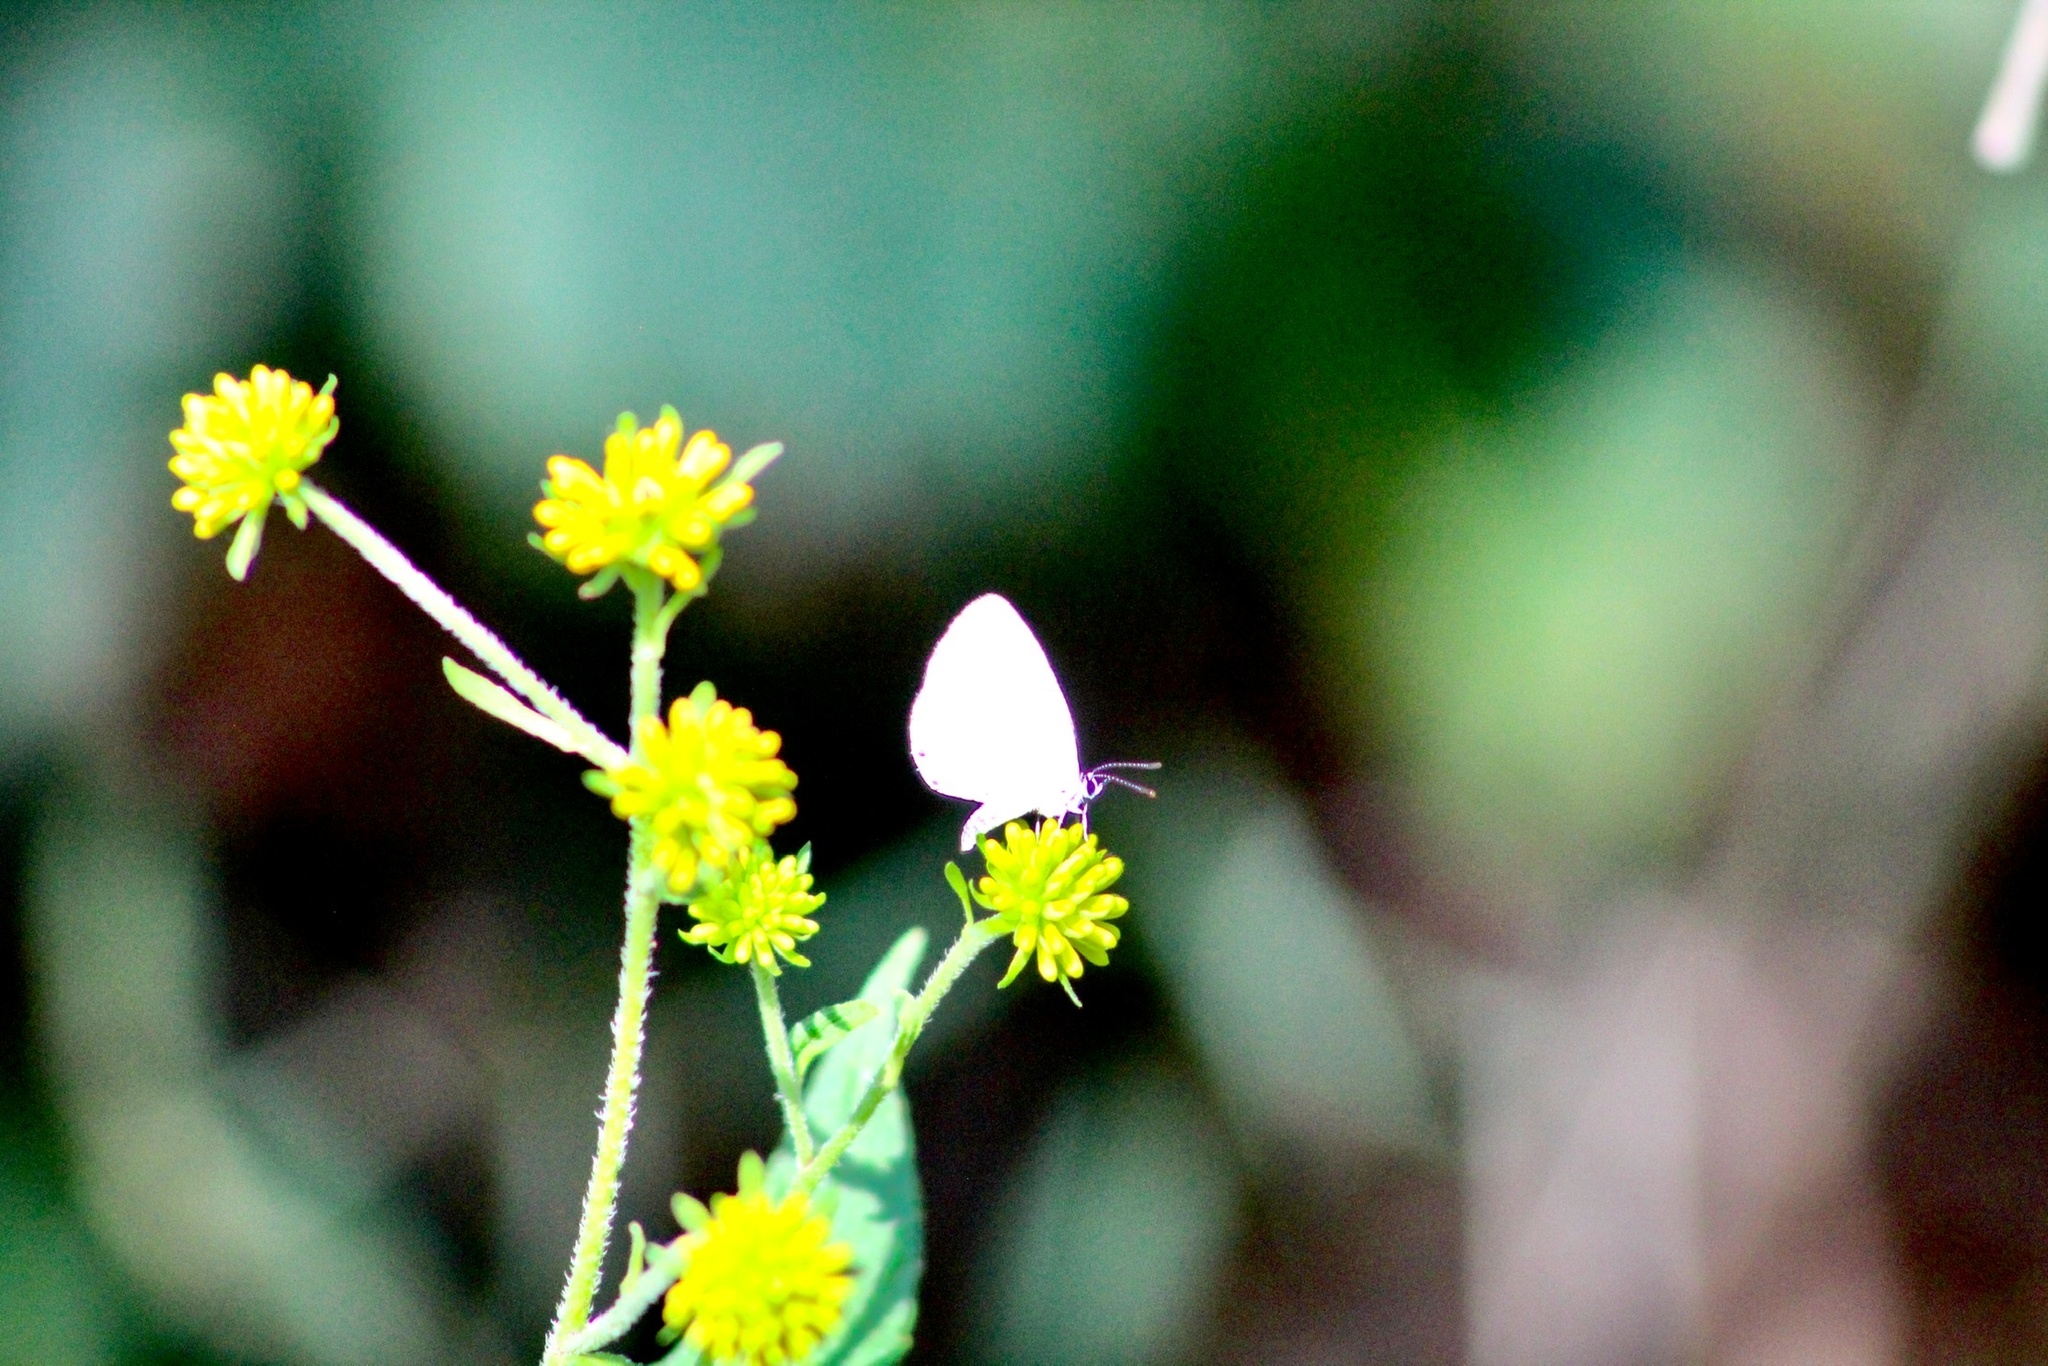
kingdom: Animalia
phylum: Arthropoda
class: Insecta
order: Lepidoptera
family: Lycaenidae
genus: Cyaniris
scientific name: Cyaniris neglecta
